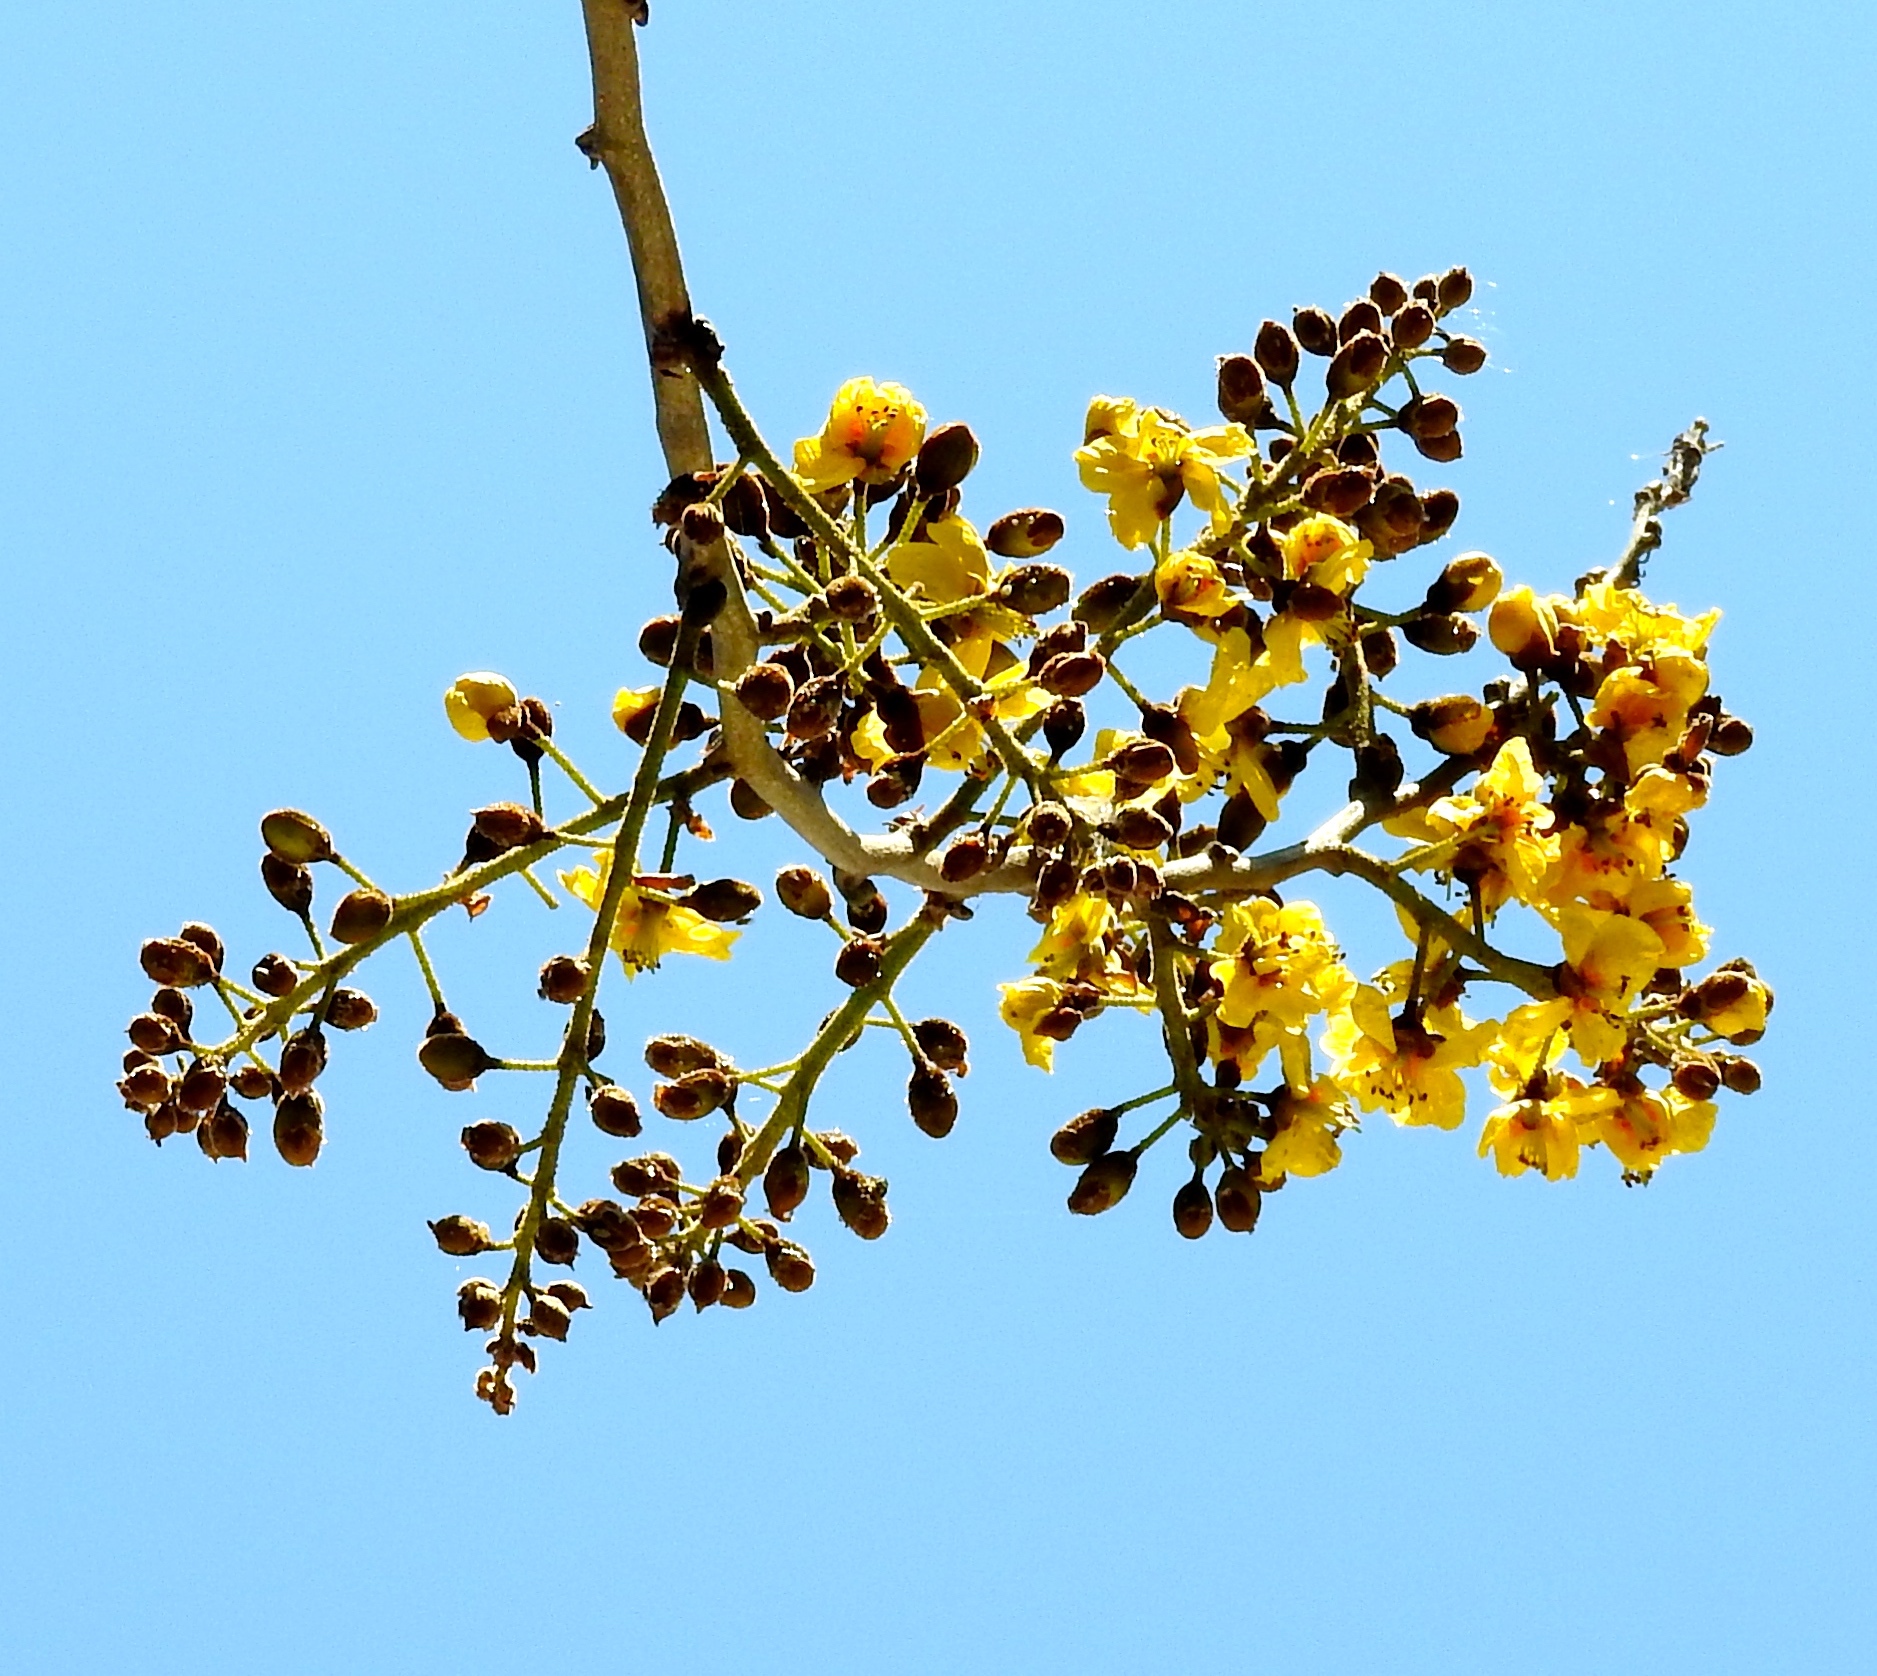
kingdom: Plantae
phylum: Tracheophyta
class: Magnoliopsida
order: Fabales
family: Fabaceae
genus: Cenostigma
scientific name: Cenostigma eriostachys
